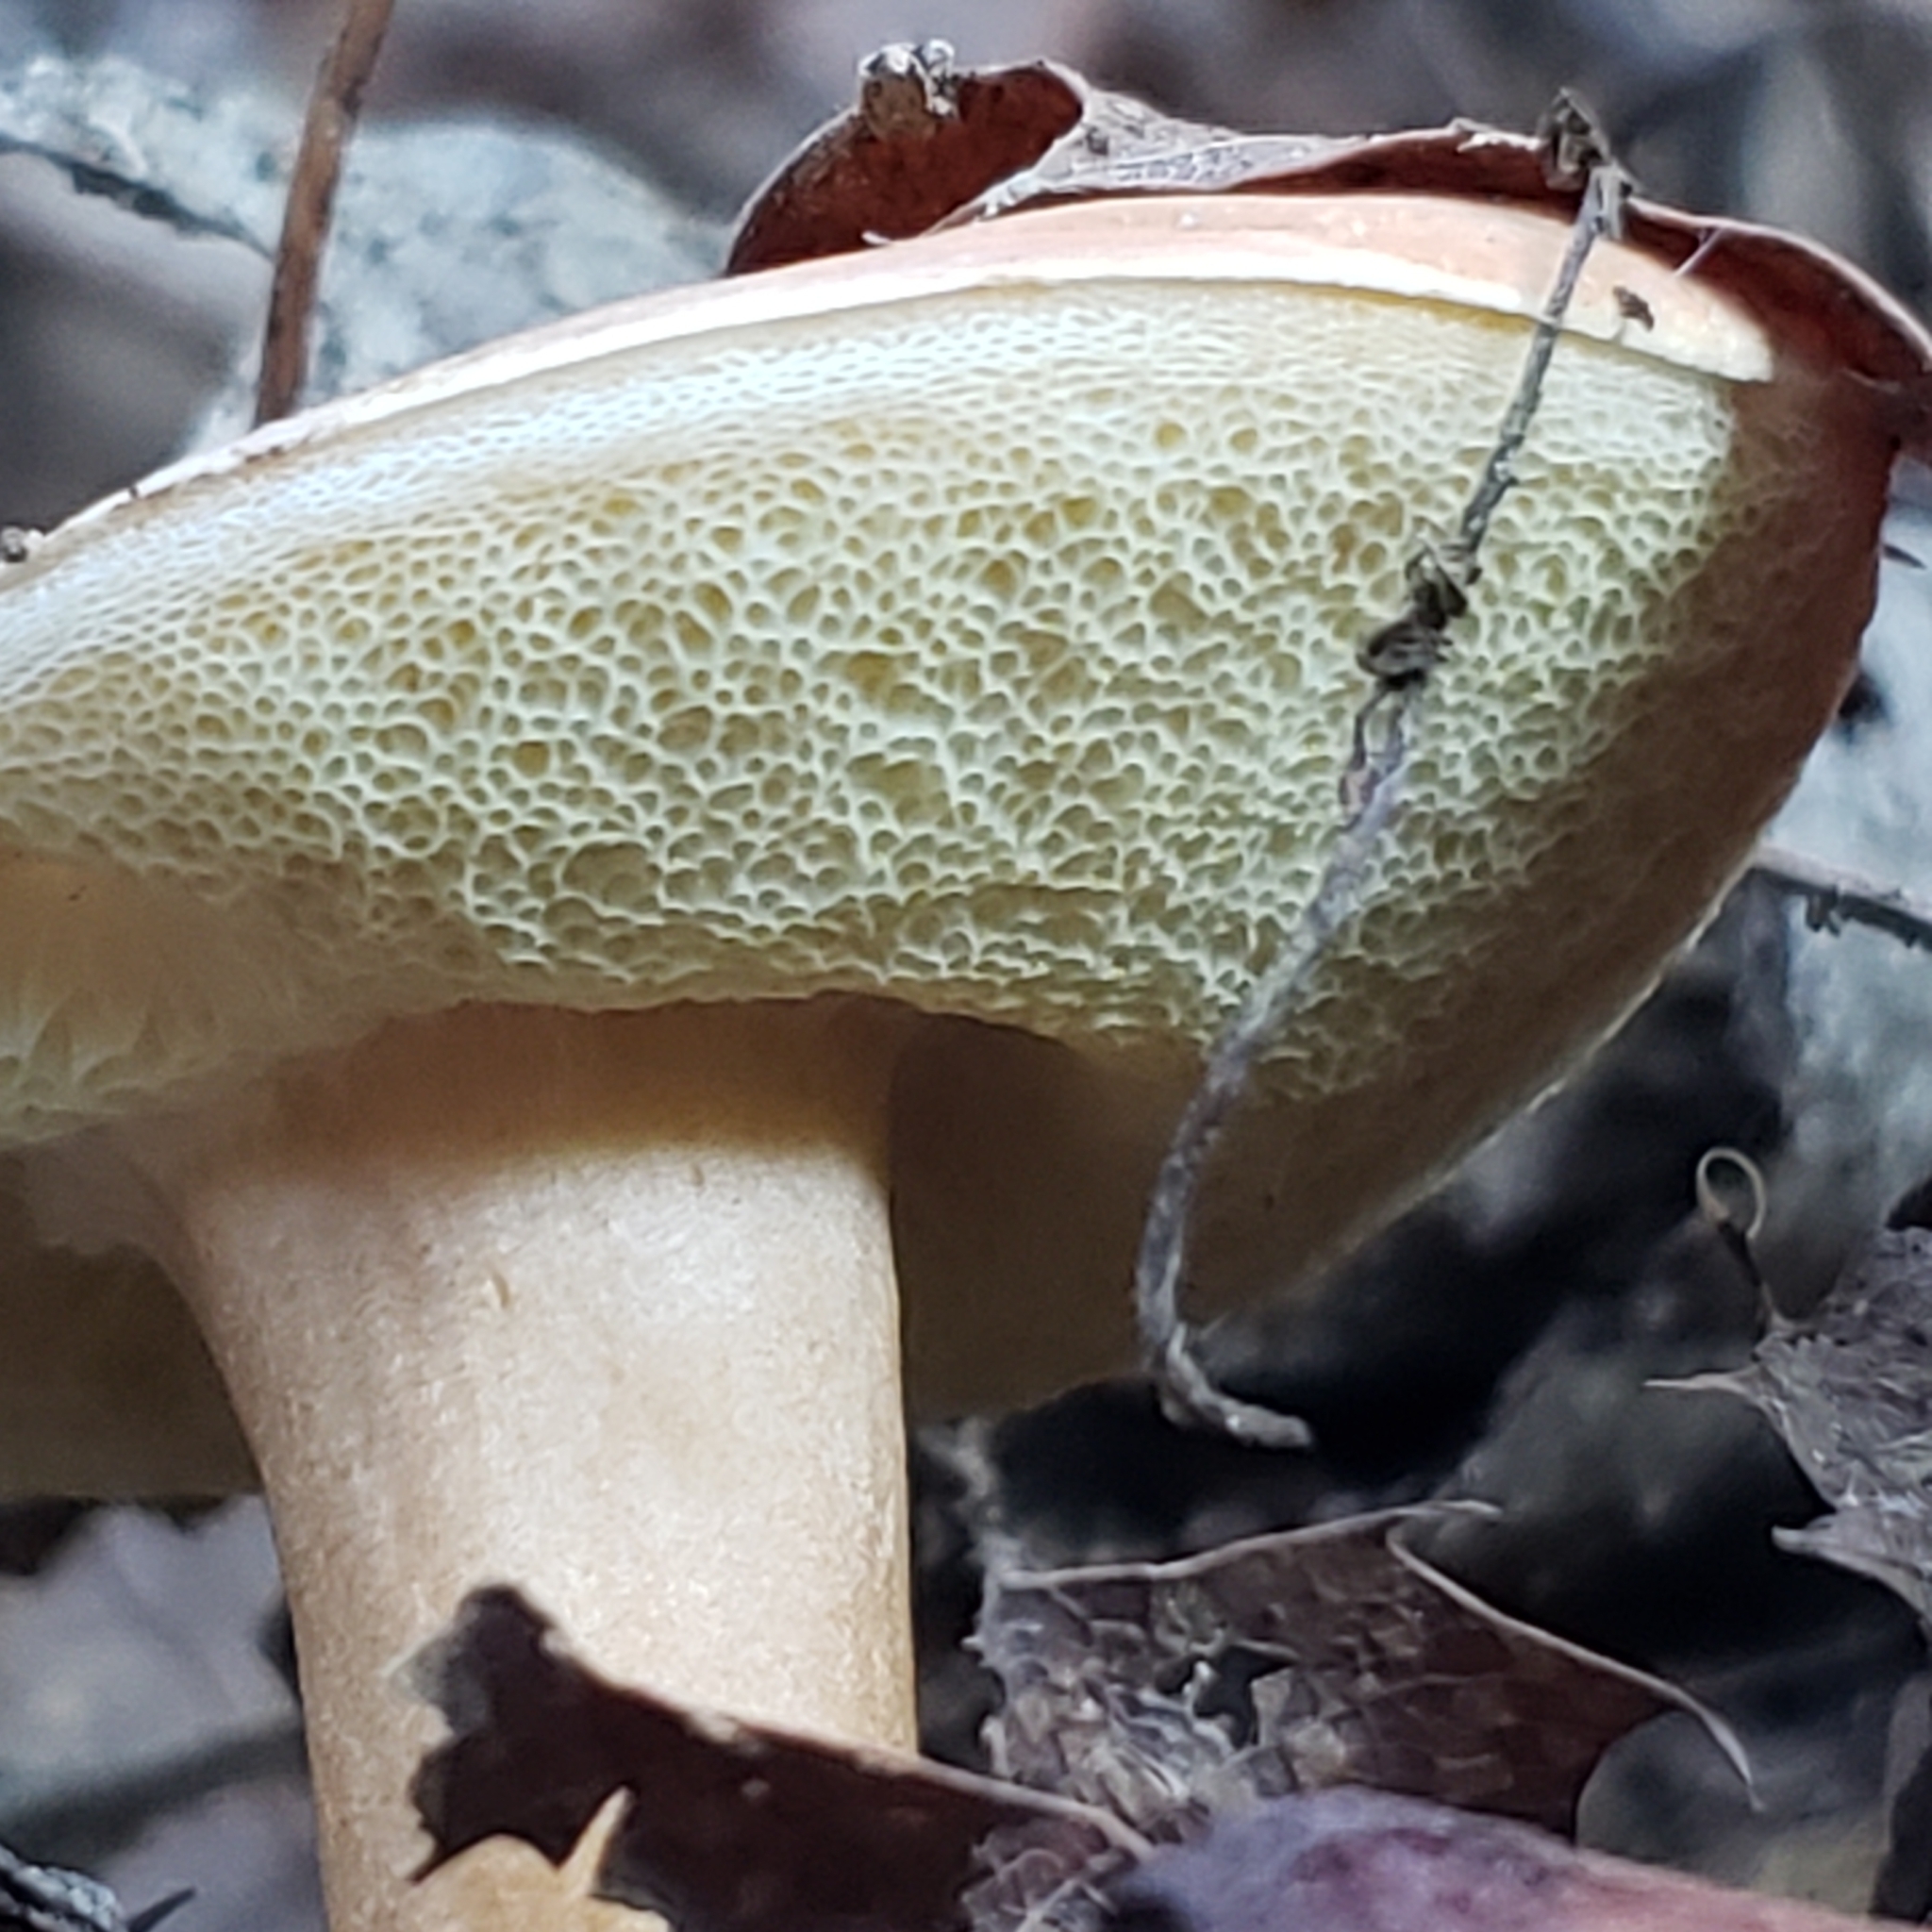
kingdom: Fungi
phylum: Basidiomycota
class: Agaricomycetes
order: Boletales
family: Gyroporaceae
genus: Gyroporus
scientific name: Gyroporus castaneus
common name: Chestnut bolete
